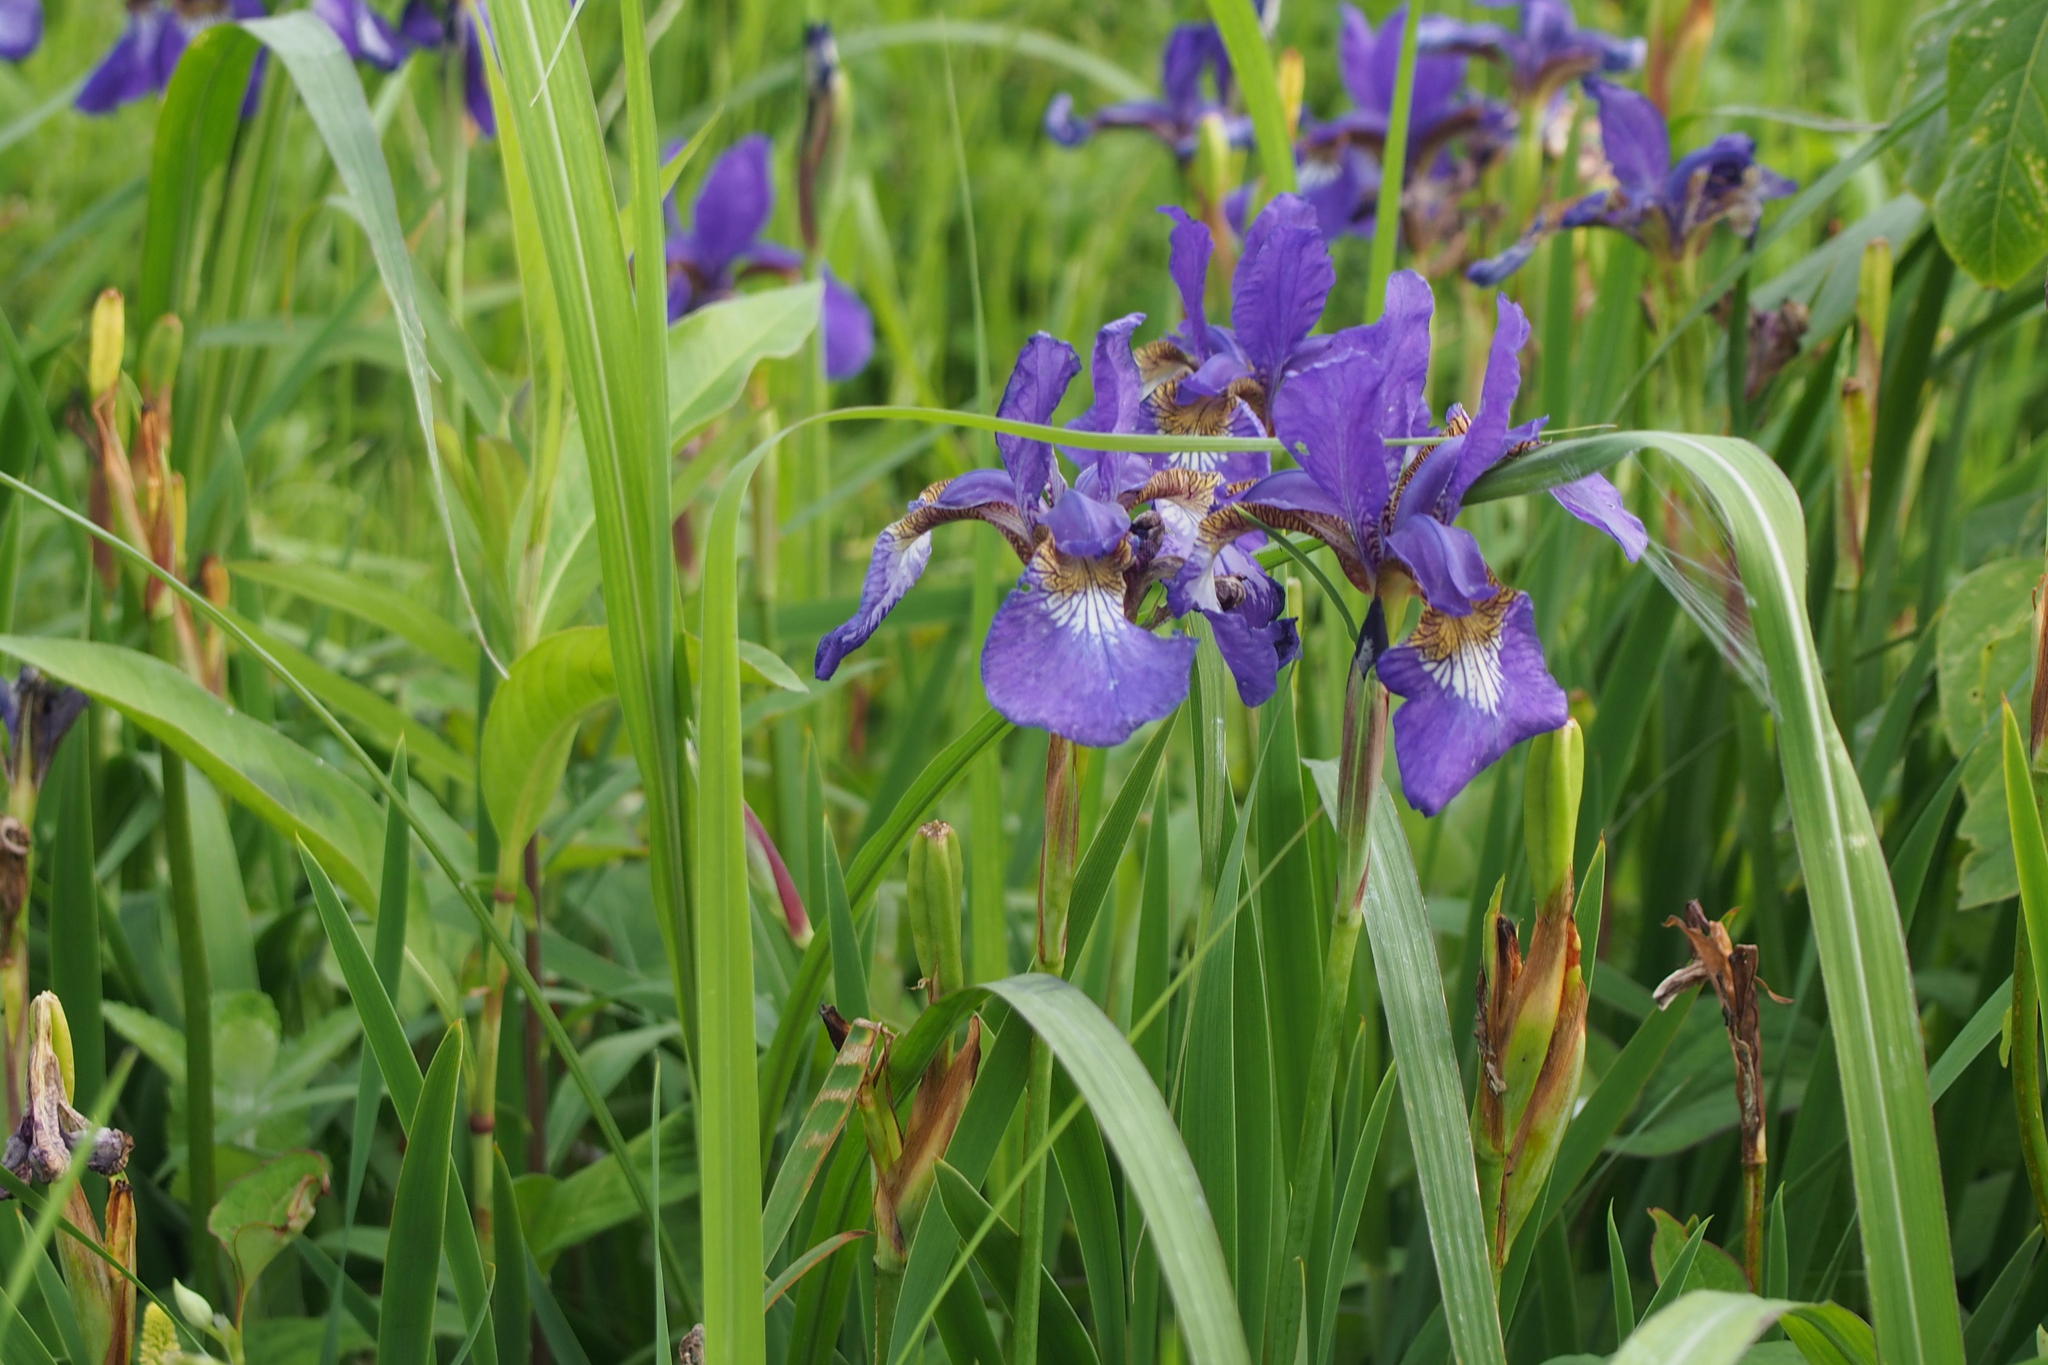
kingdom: Plantae
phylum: Tracheophyta
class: Liliopsida
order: Asparagales
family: Iridaceae
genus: Iris
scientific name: Iris sanguinea
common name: Blood iris
